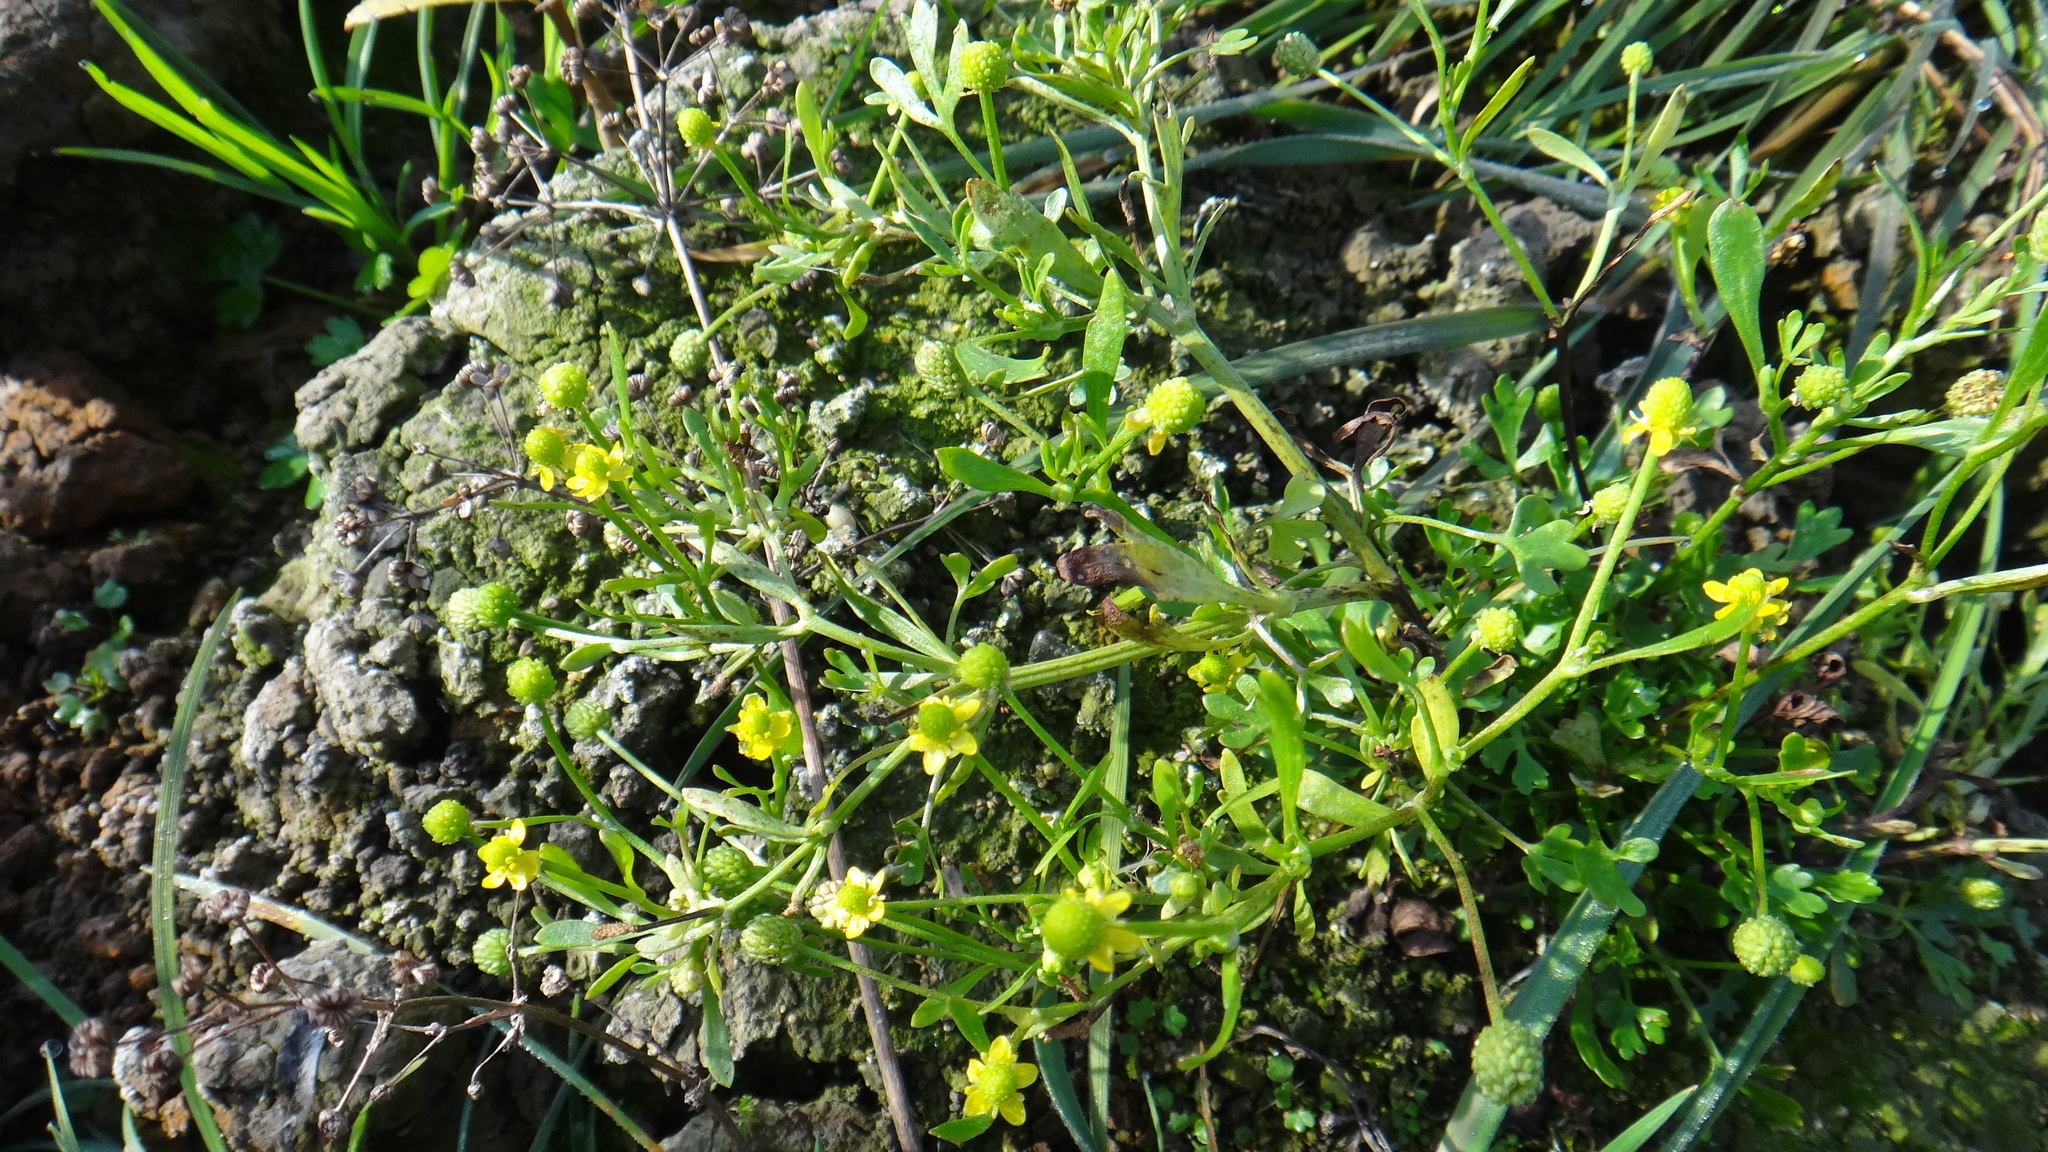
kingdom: Plantae
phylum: Tracheophyta
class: Magnoliopsida
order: Ranunculales
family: Ranunculaceae
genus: Ranunculus
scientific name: Ranunculus sceleratus
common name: Celery-leaved buttercup
